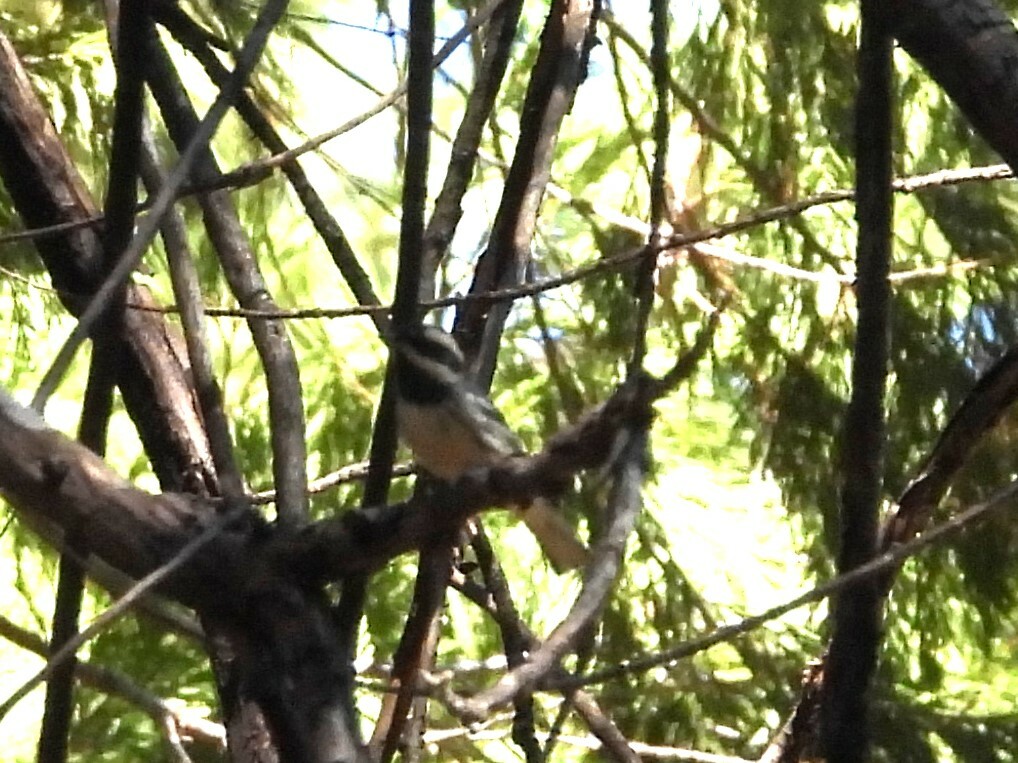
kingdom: Animalia
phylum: Chordata
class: Aves
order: Passeriformes
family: Parulidae
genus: Setophaga
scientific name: Setophaga nigrescens
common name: Black-throated gray warbler
